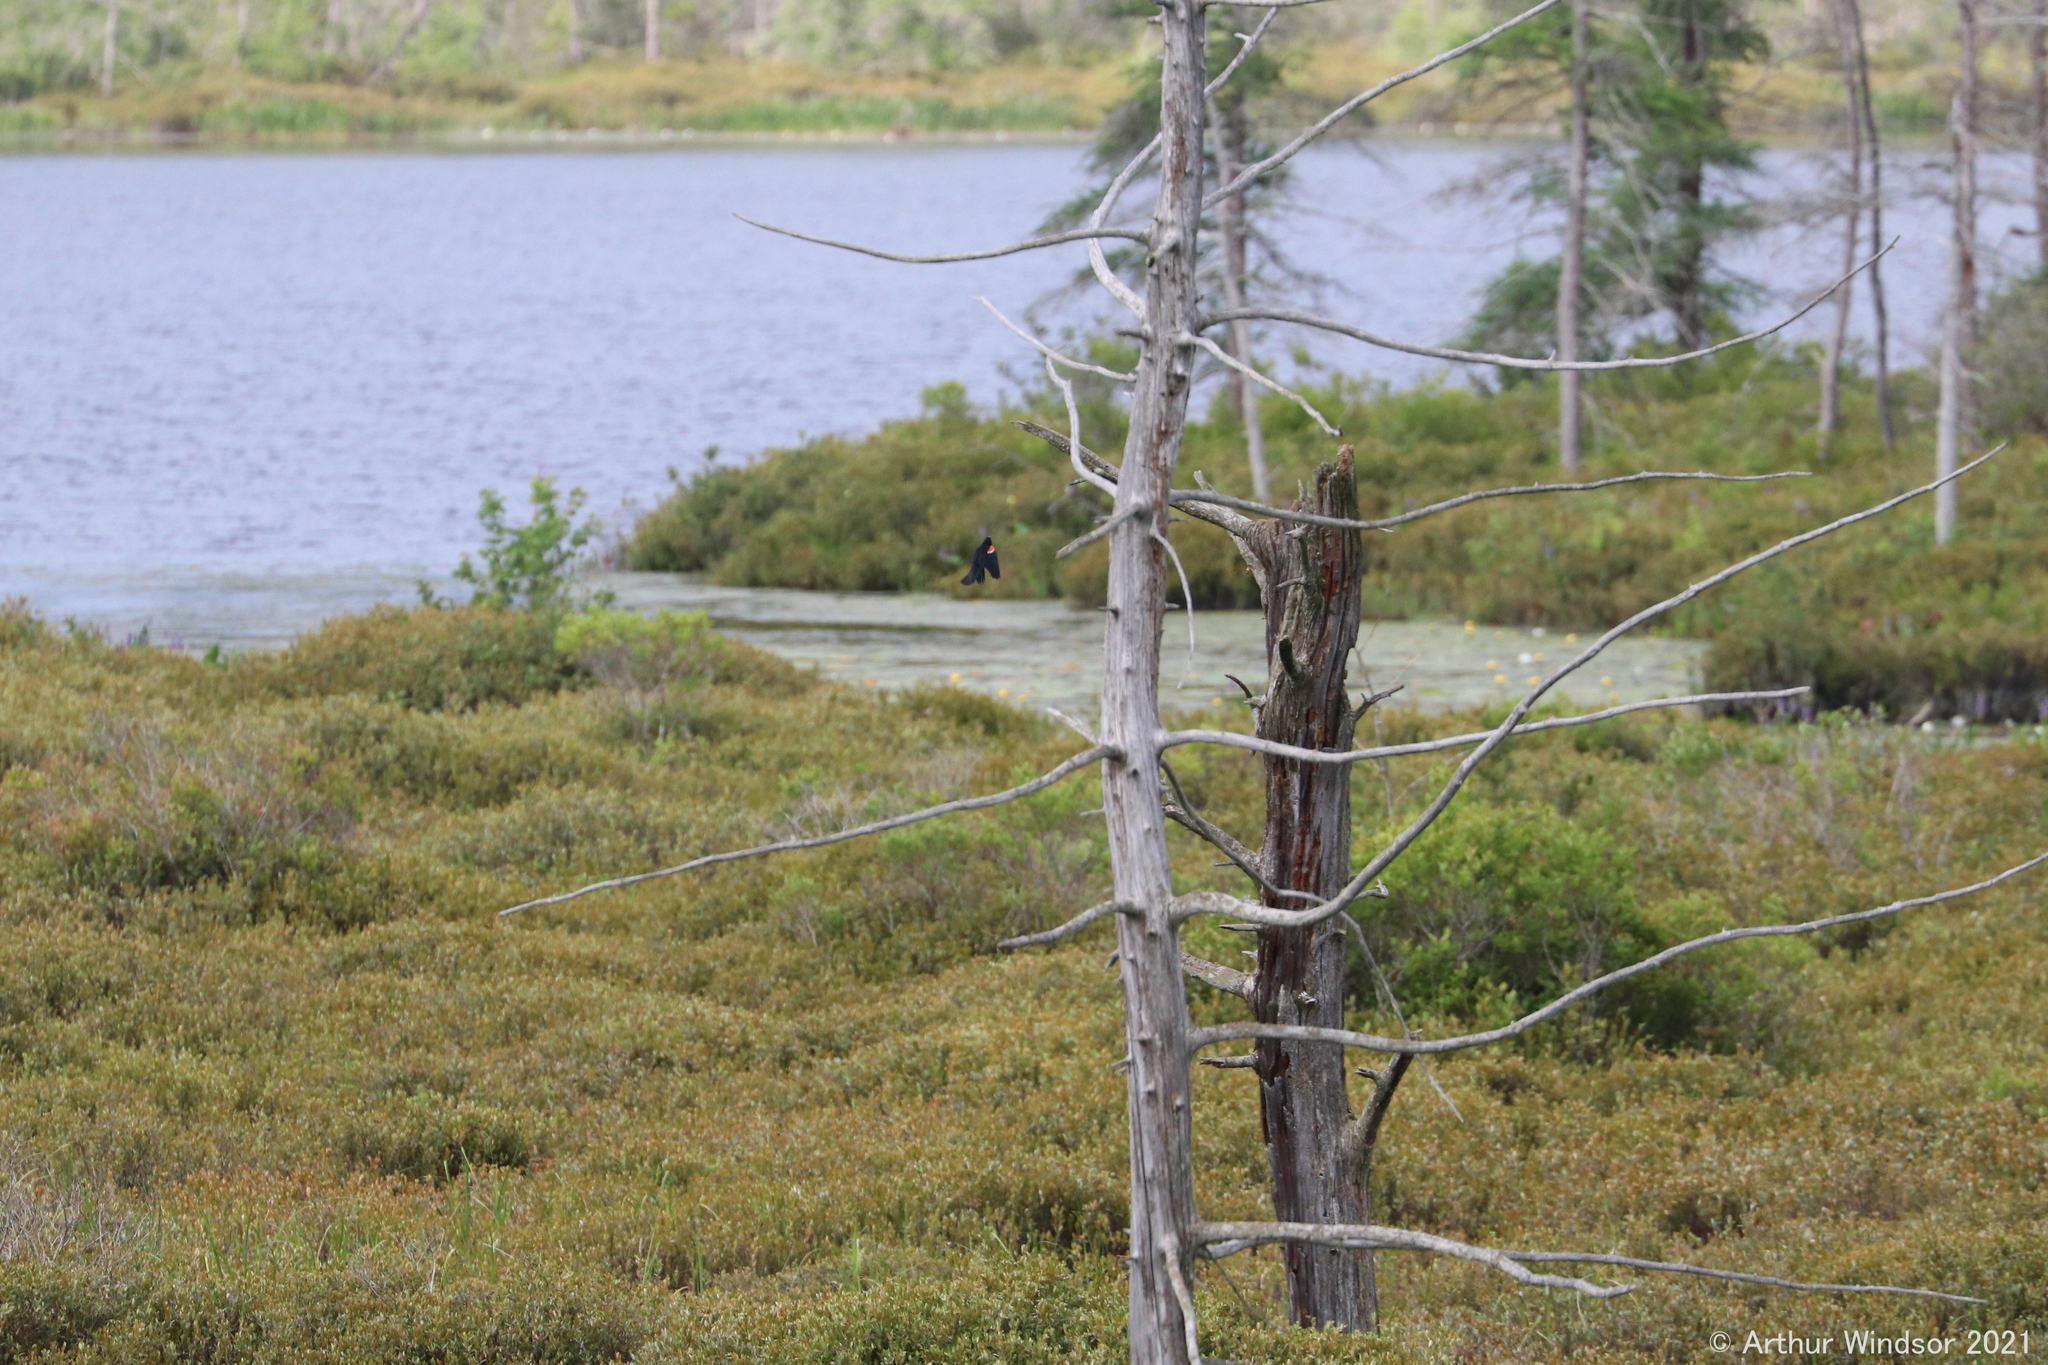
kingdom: Animalia
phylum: Chordata
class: Aves
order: Passeriformes
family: Icteridae
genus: Agelaius
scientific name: Agelaius phoeniceus
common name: Red-winged blackbird
